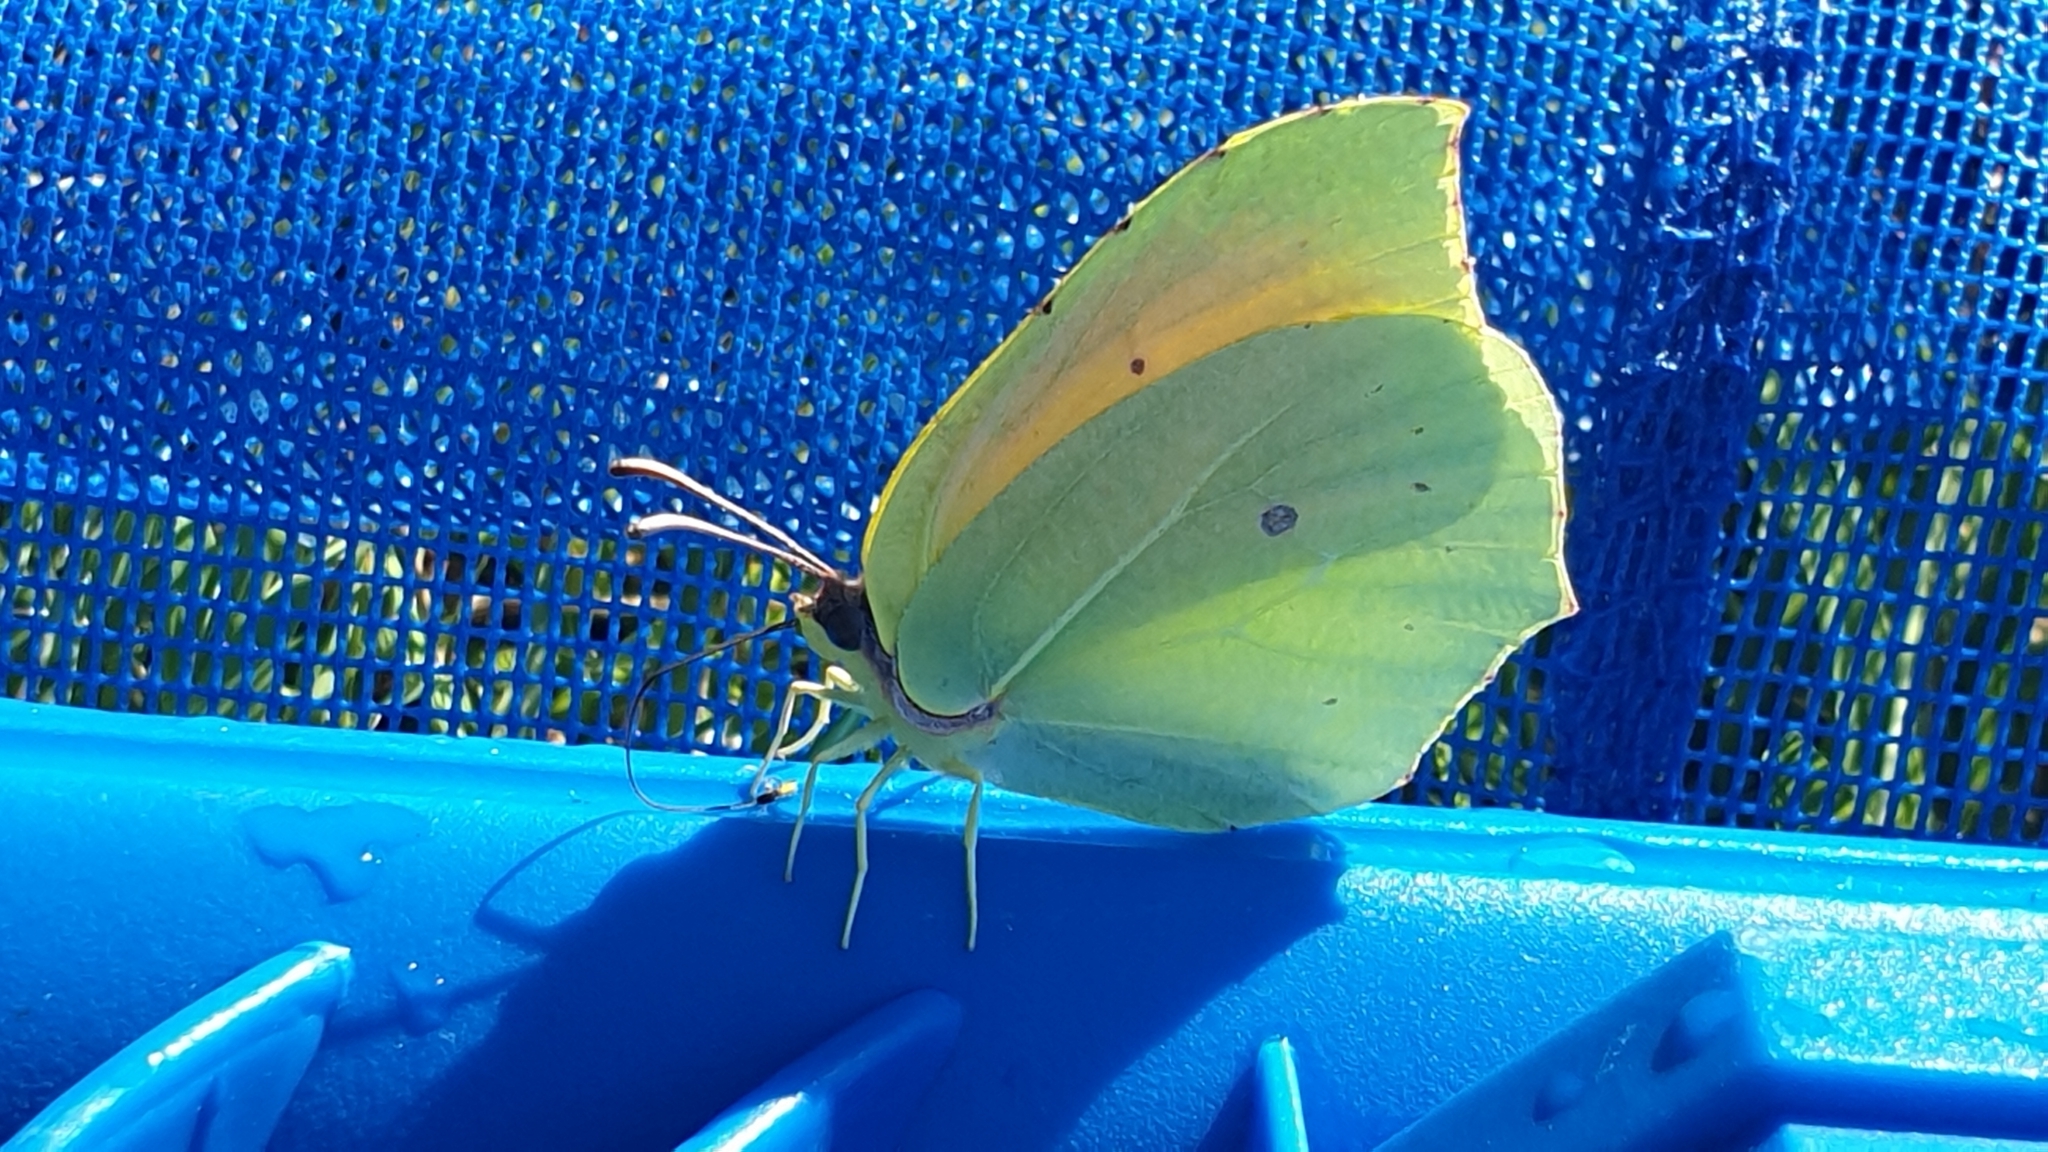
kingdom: Animalia
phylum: Arthropoda
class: Insecta
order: Lepidoptera
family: Pieridae
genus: Gonepteryx
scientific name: Gonepteryx cleopatra
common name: Cleopatra
